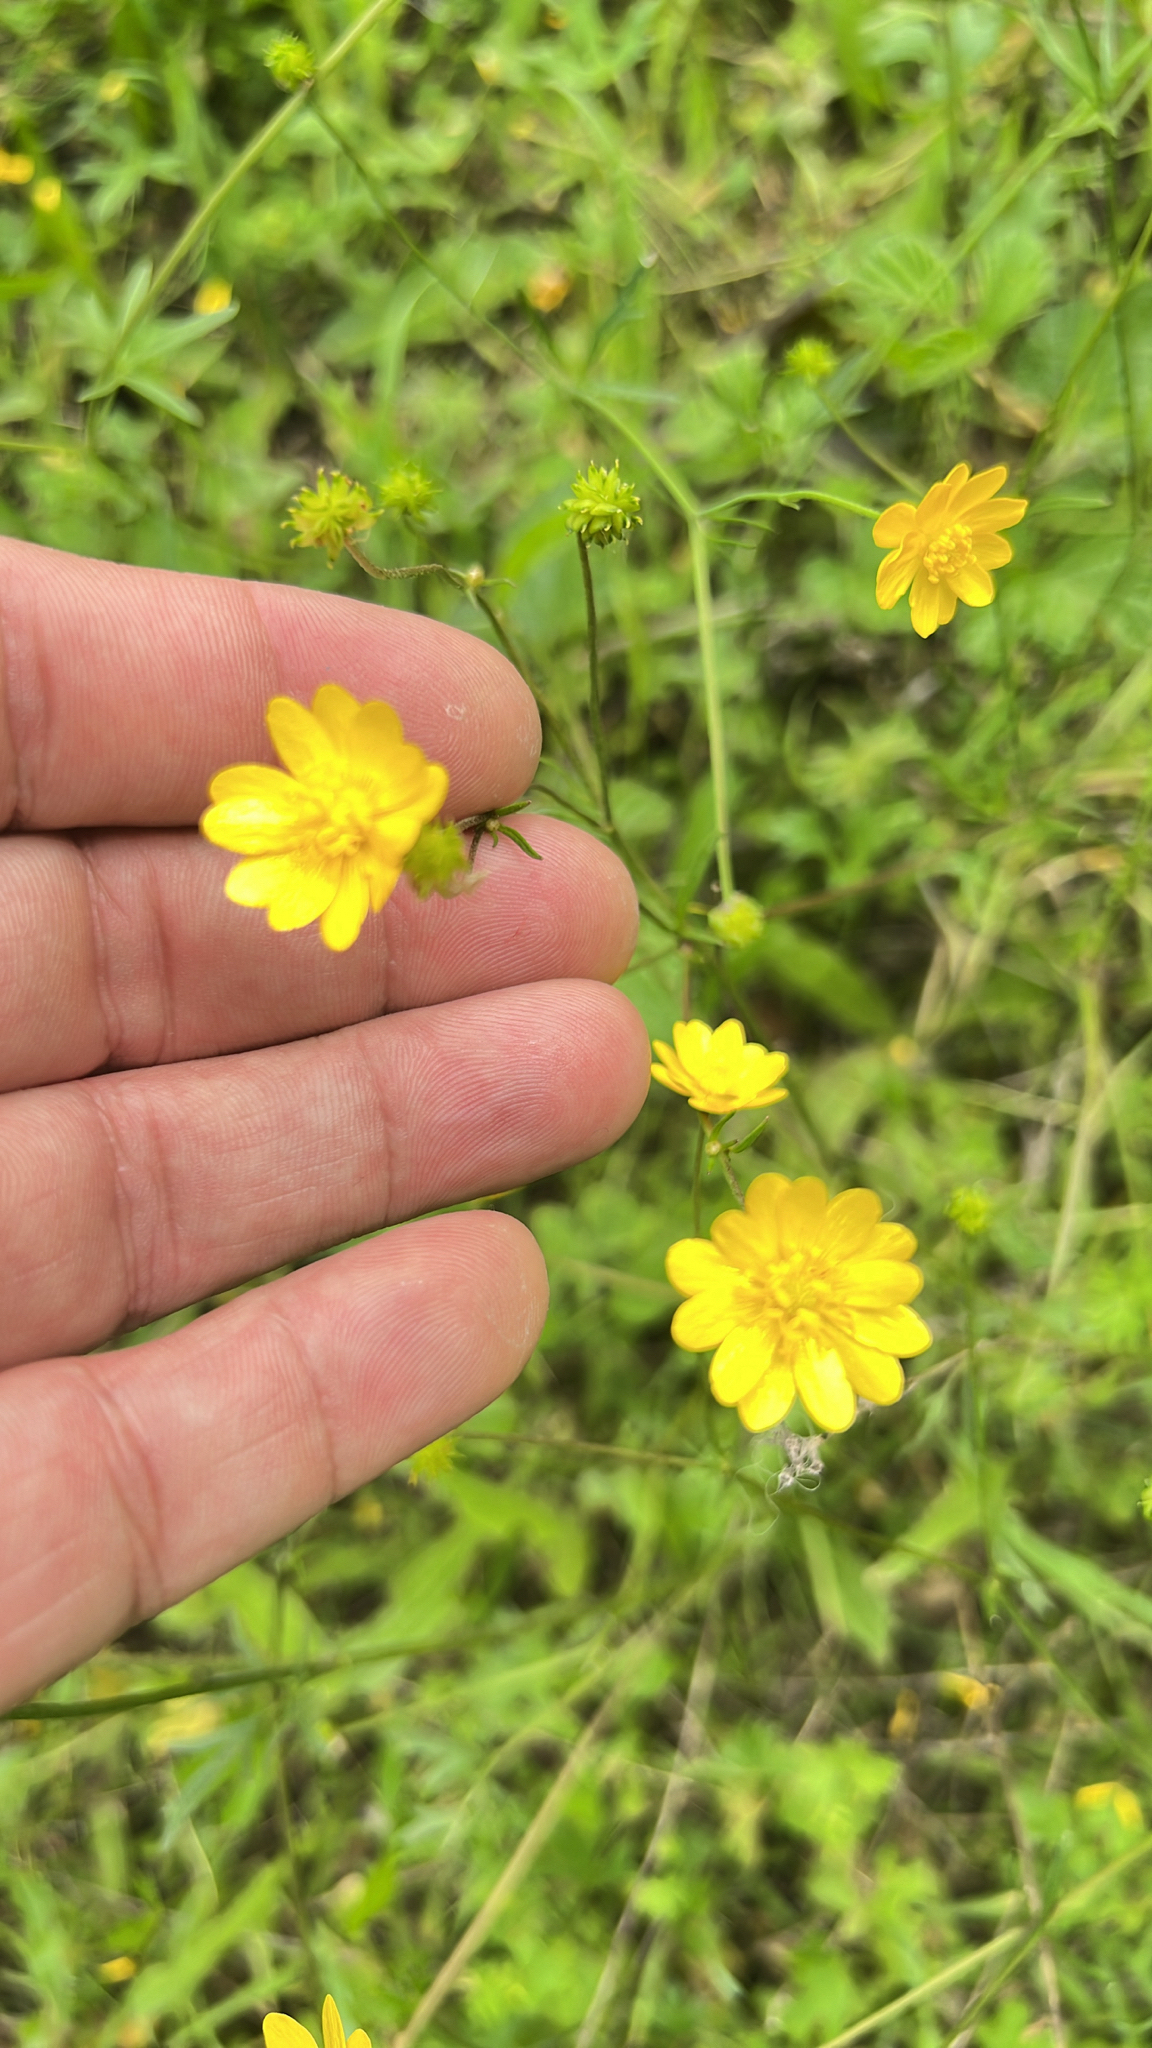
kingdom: Plantae
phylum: Tracheophyta
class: Magnoliopsida
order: Ranunculales
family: Ranunculaceae
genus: Ranunculus
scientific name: Ranunculus californicus
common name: California buttercup
